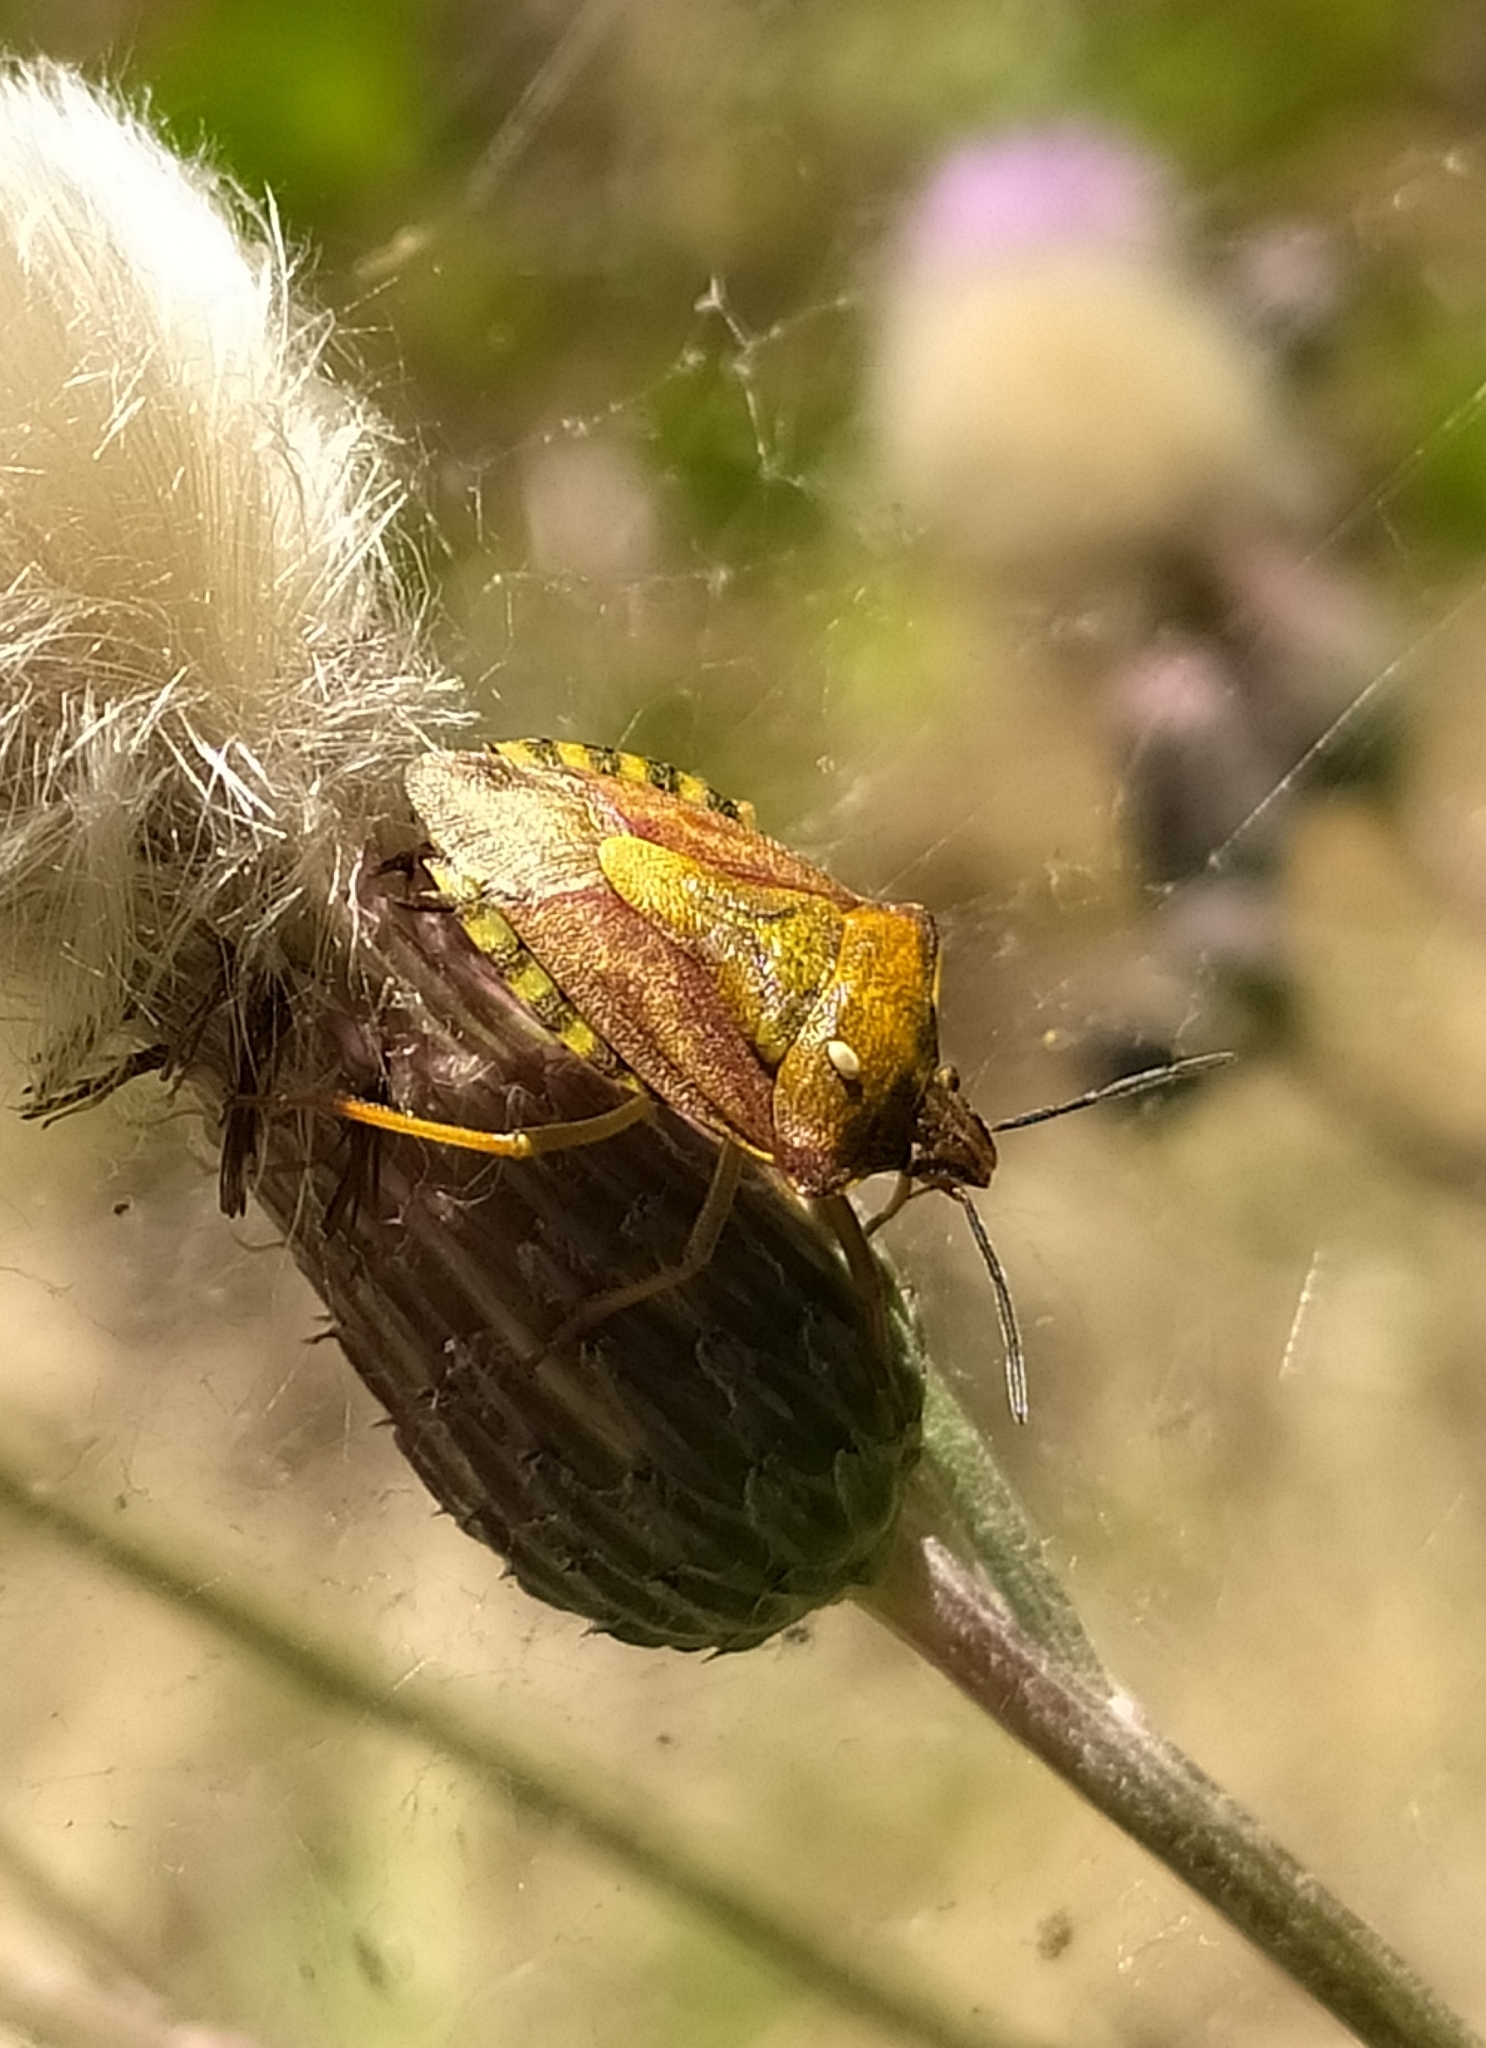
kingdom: Animalia
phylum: Arthropoda
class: Insecta
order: Hemiptera
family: Pentatomidae
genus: Carpocoris
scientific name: Carpocoris purpureipennis
